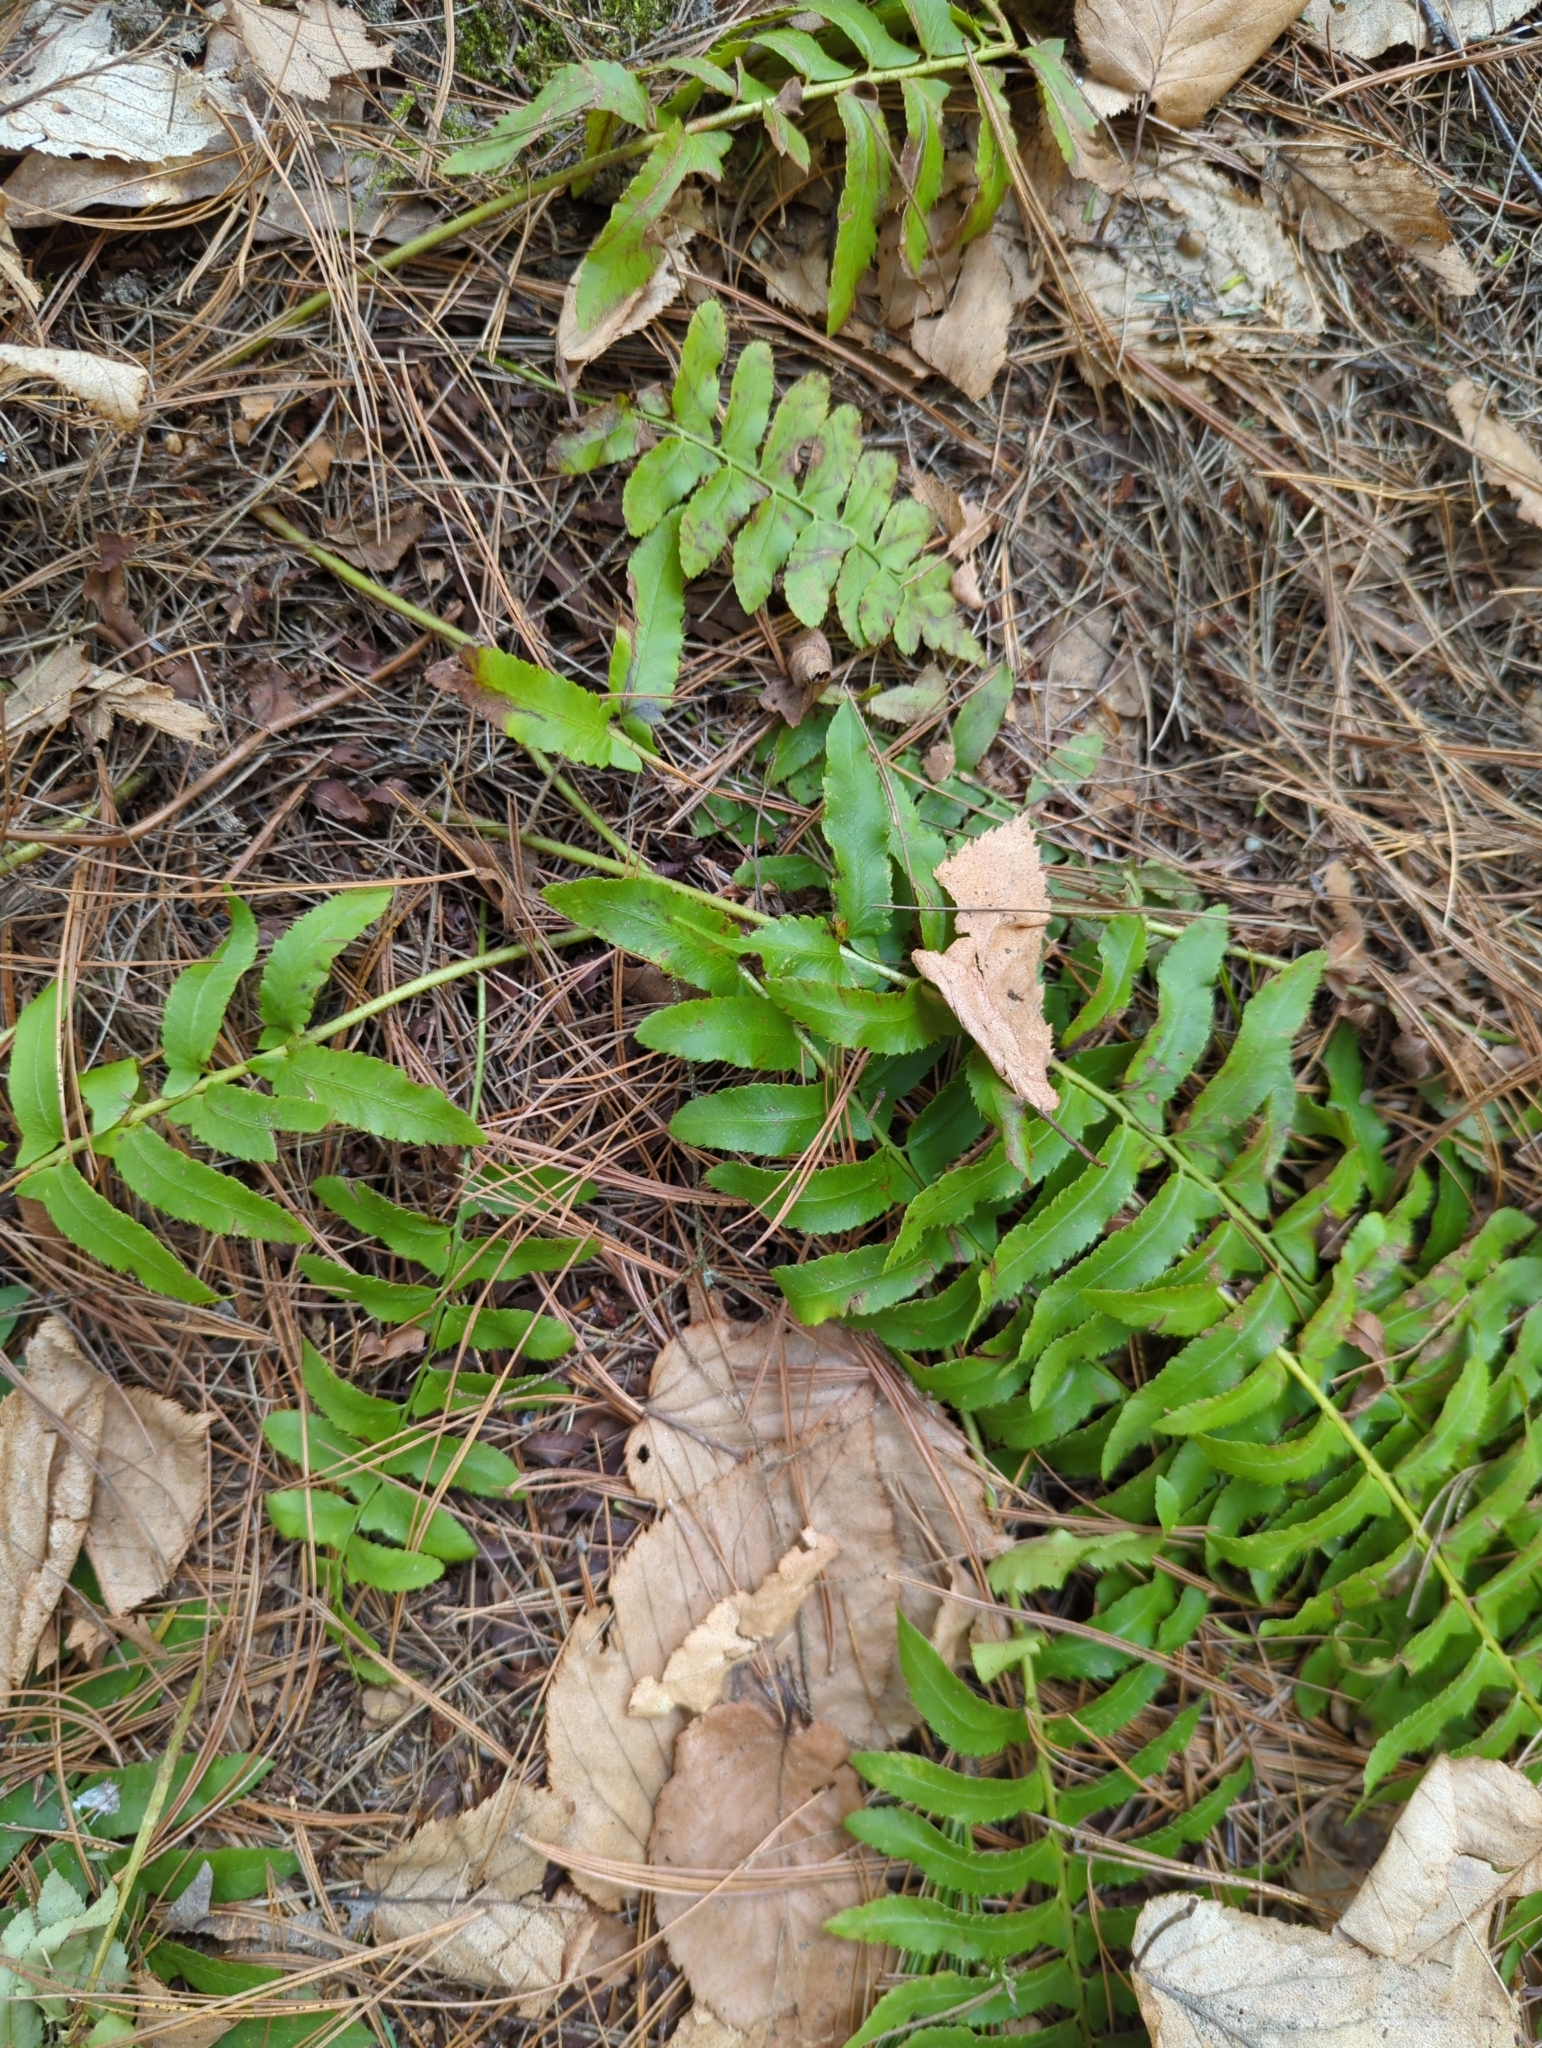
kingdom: Plantae
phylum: Tracheophyta
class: Polypodiopsida
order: Polypodiales
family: Dryopteridaceae
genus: Polystichum
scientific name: Polystichum acrostichoides
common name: Christmas fern
